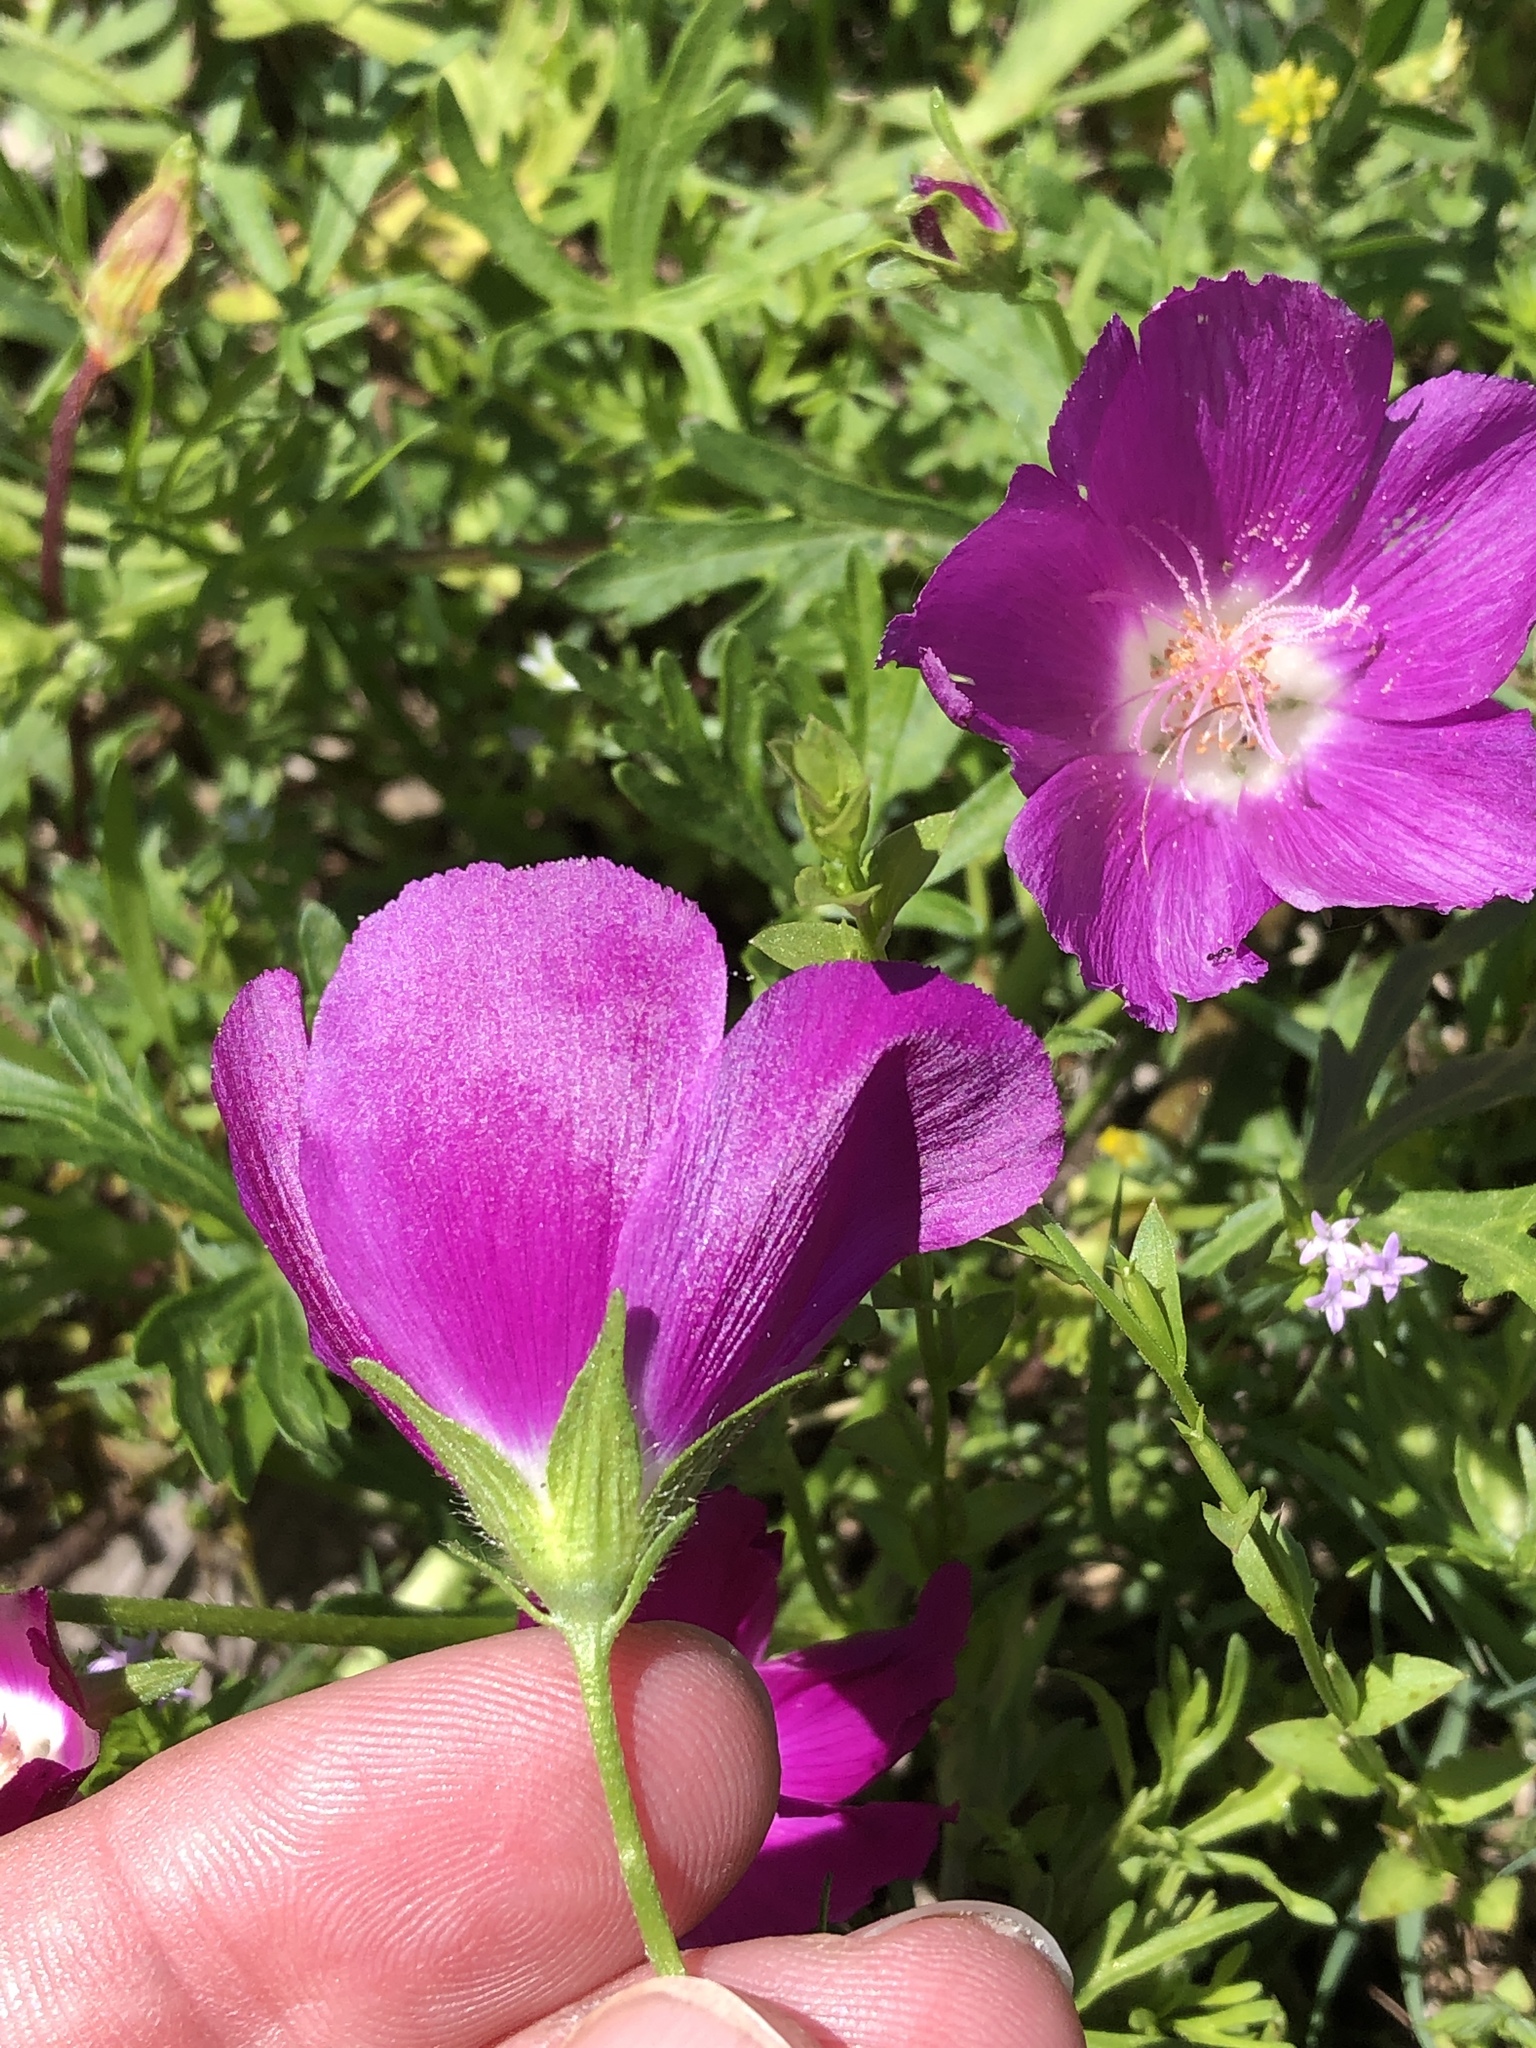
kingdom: Plantae
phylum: Tracheophyta
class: Magnoliopsida
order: Malvales
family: Malvaceae
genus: Callirhoe
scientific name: Callirhoe involucrata
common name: Purple poppy-mallow
